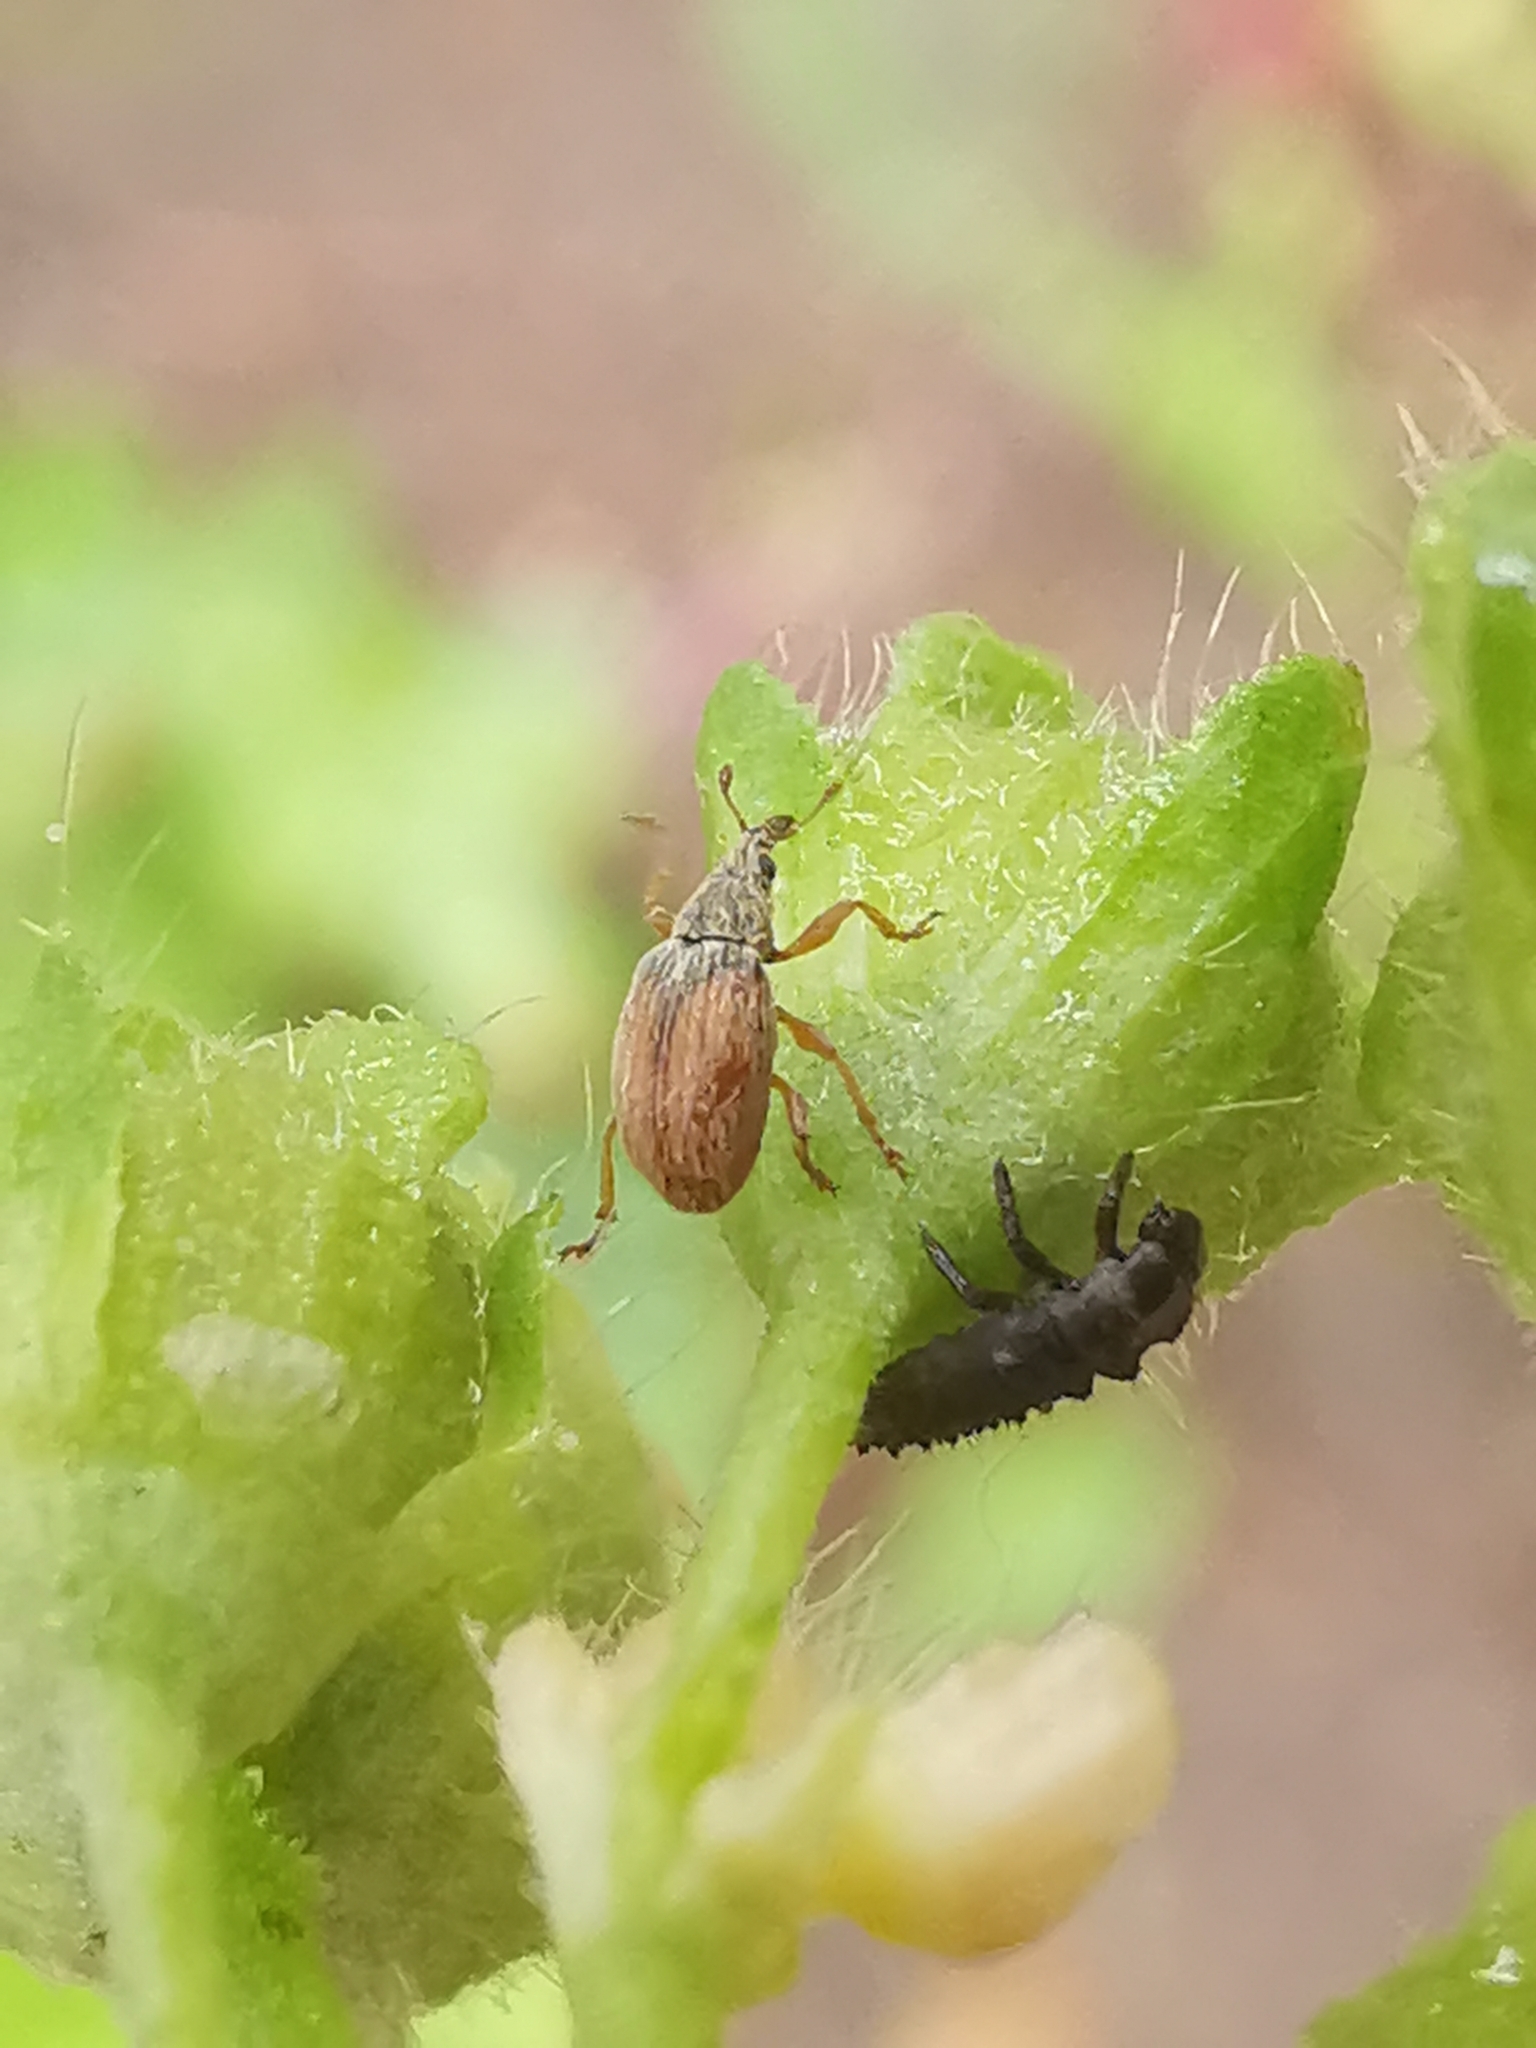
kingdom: Animalia
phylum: Arthropoda
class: Insecta
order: Coleoptera
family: Apionidae
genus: Malvapion
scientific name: Malvapion malvae
